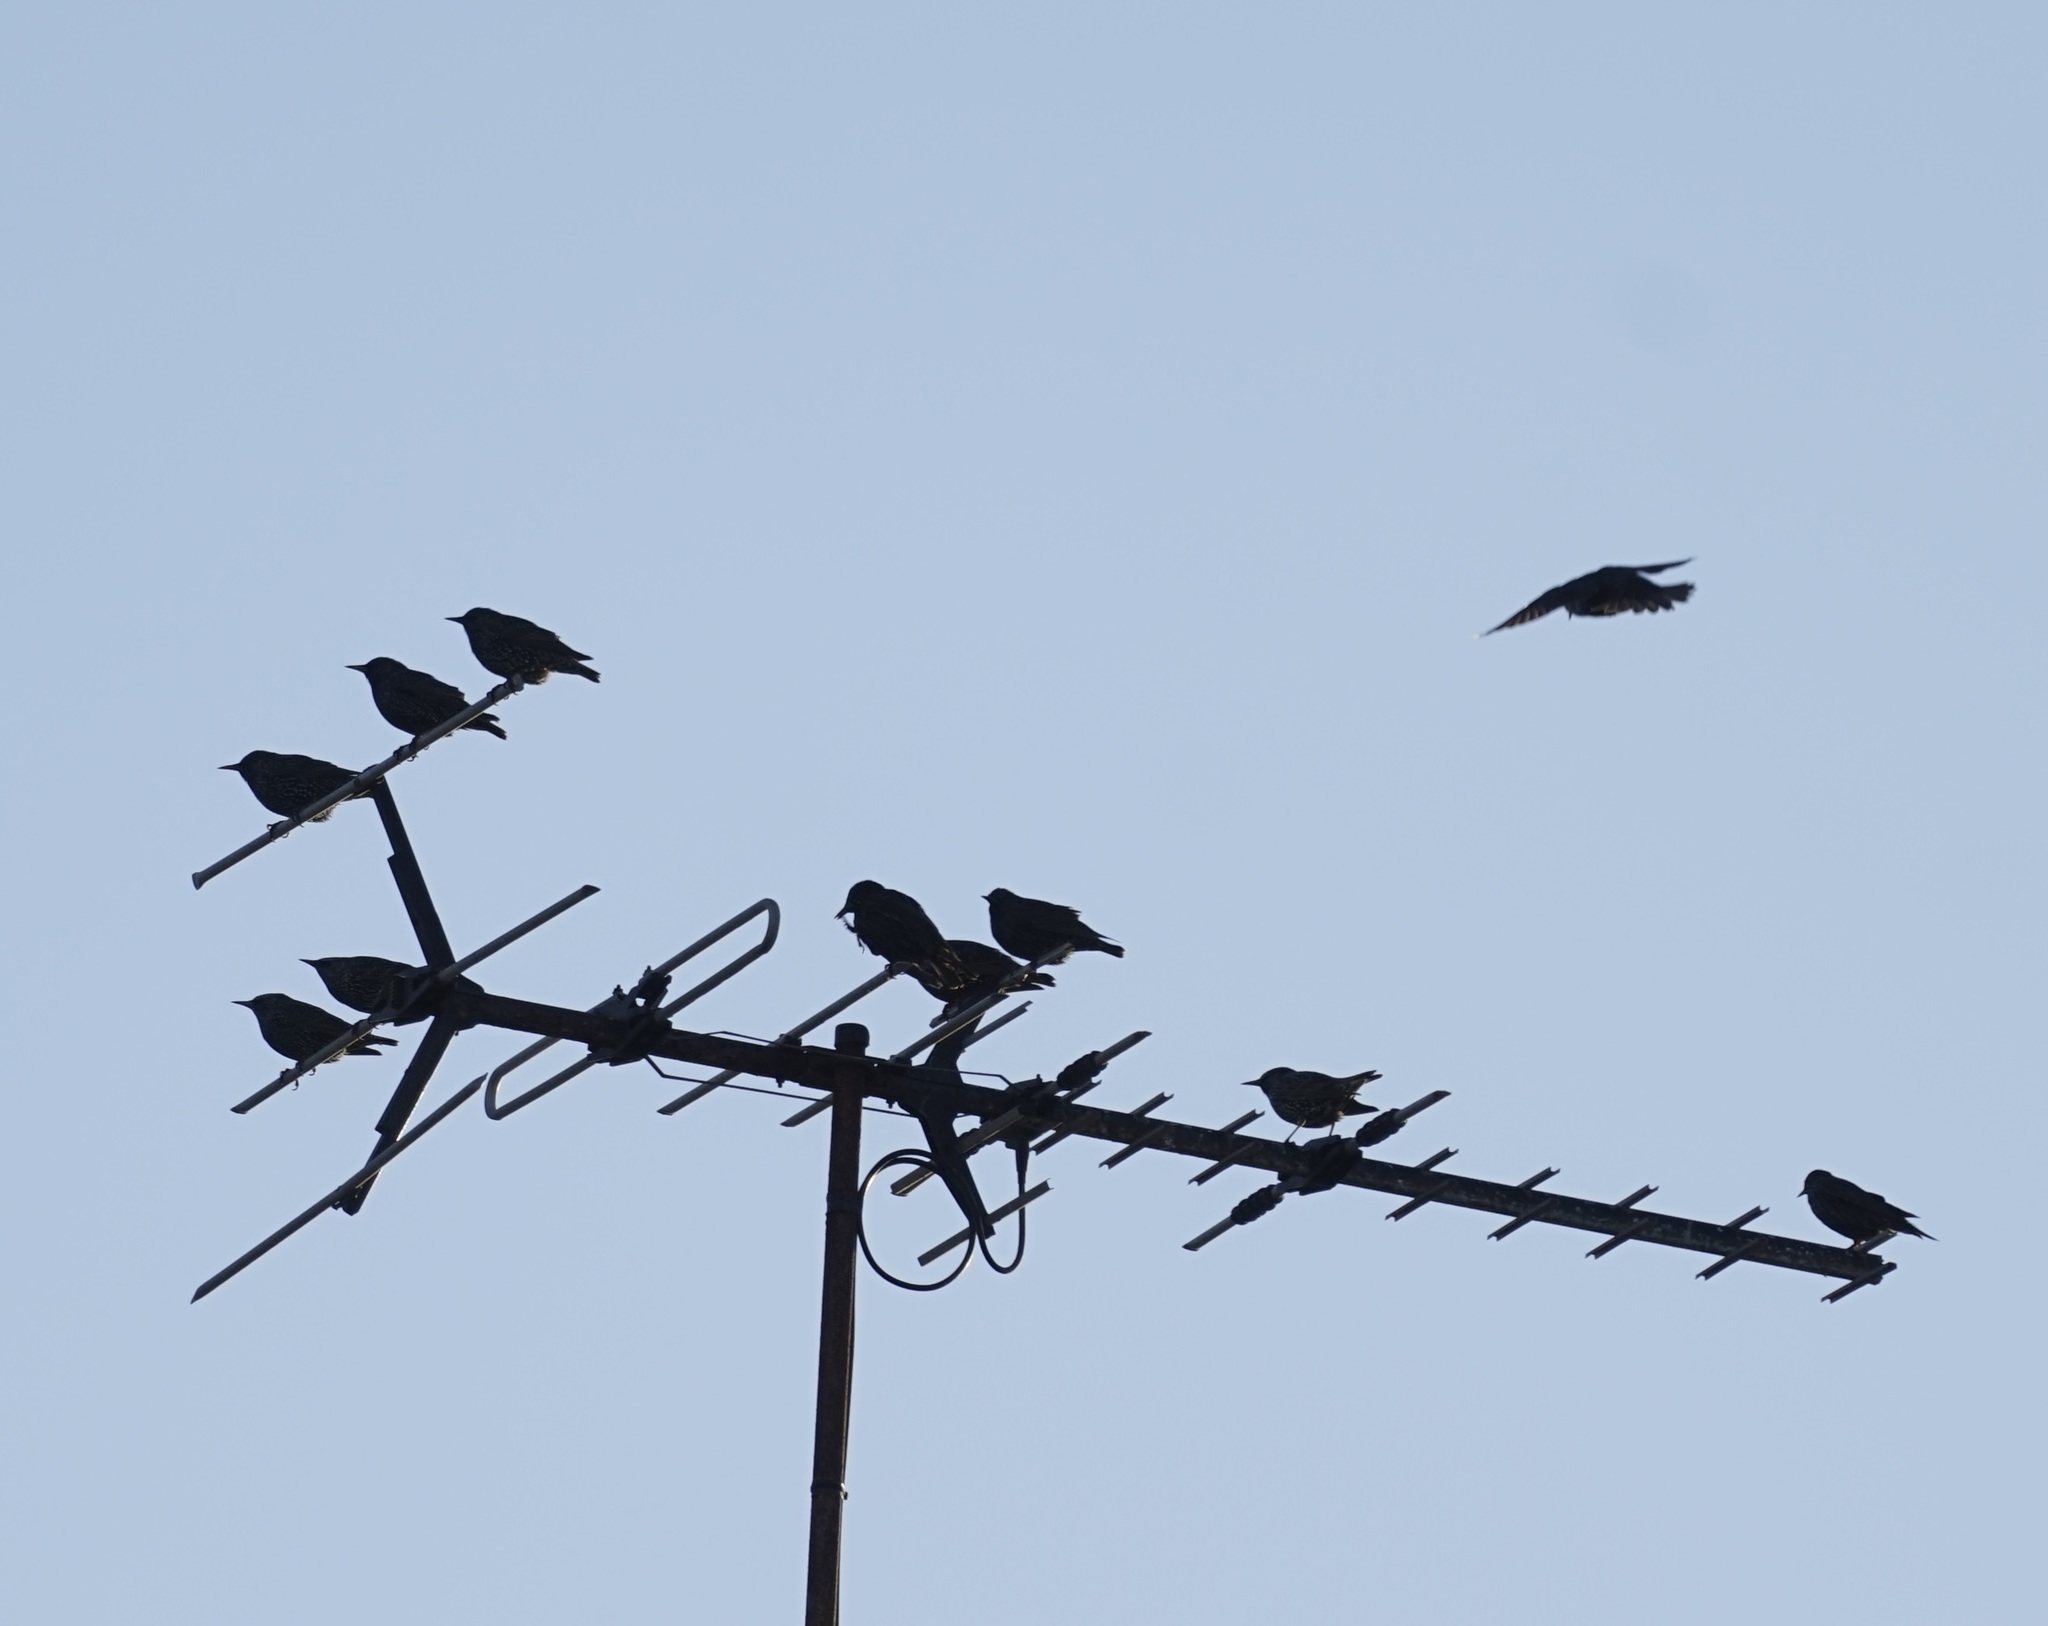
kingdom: Animalia
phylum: Chordata
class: Aves
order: Passeriformes
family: Sturnidae
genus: Sturnus
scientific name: Sturnus vulgaris
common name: Common starling
